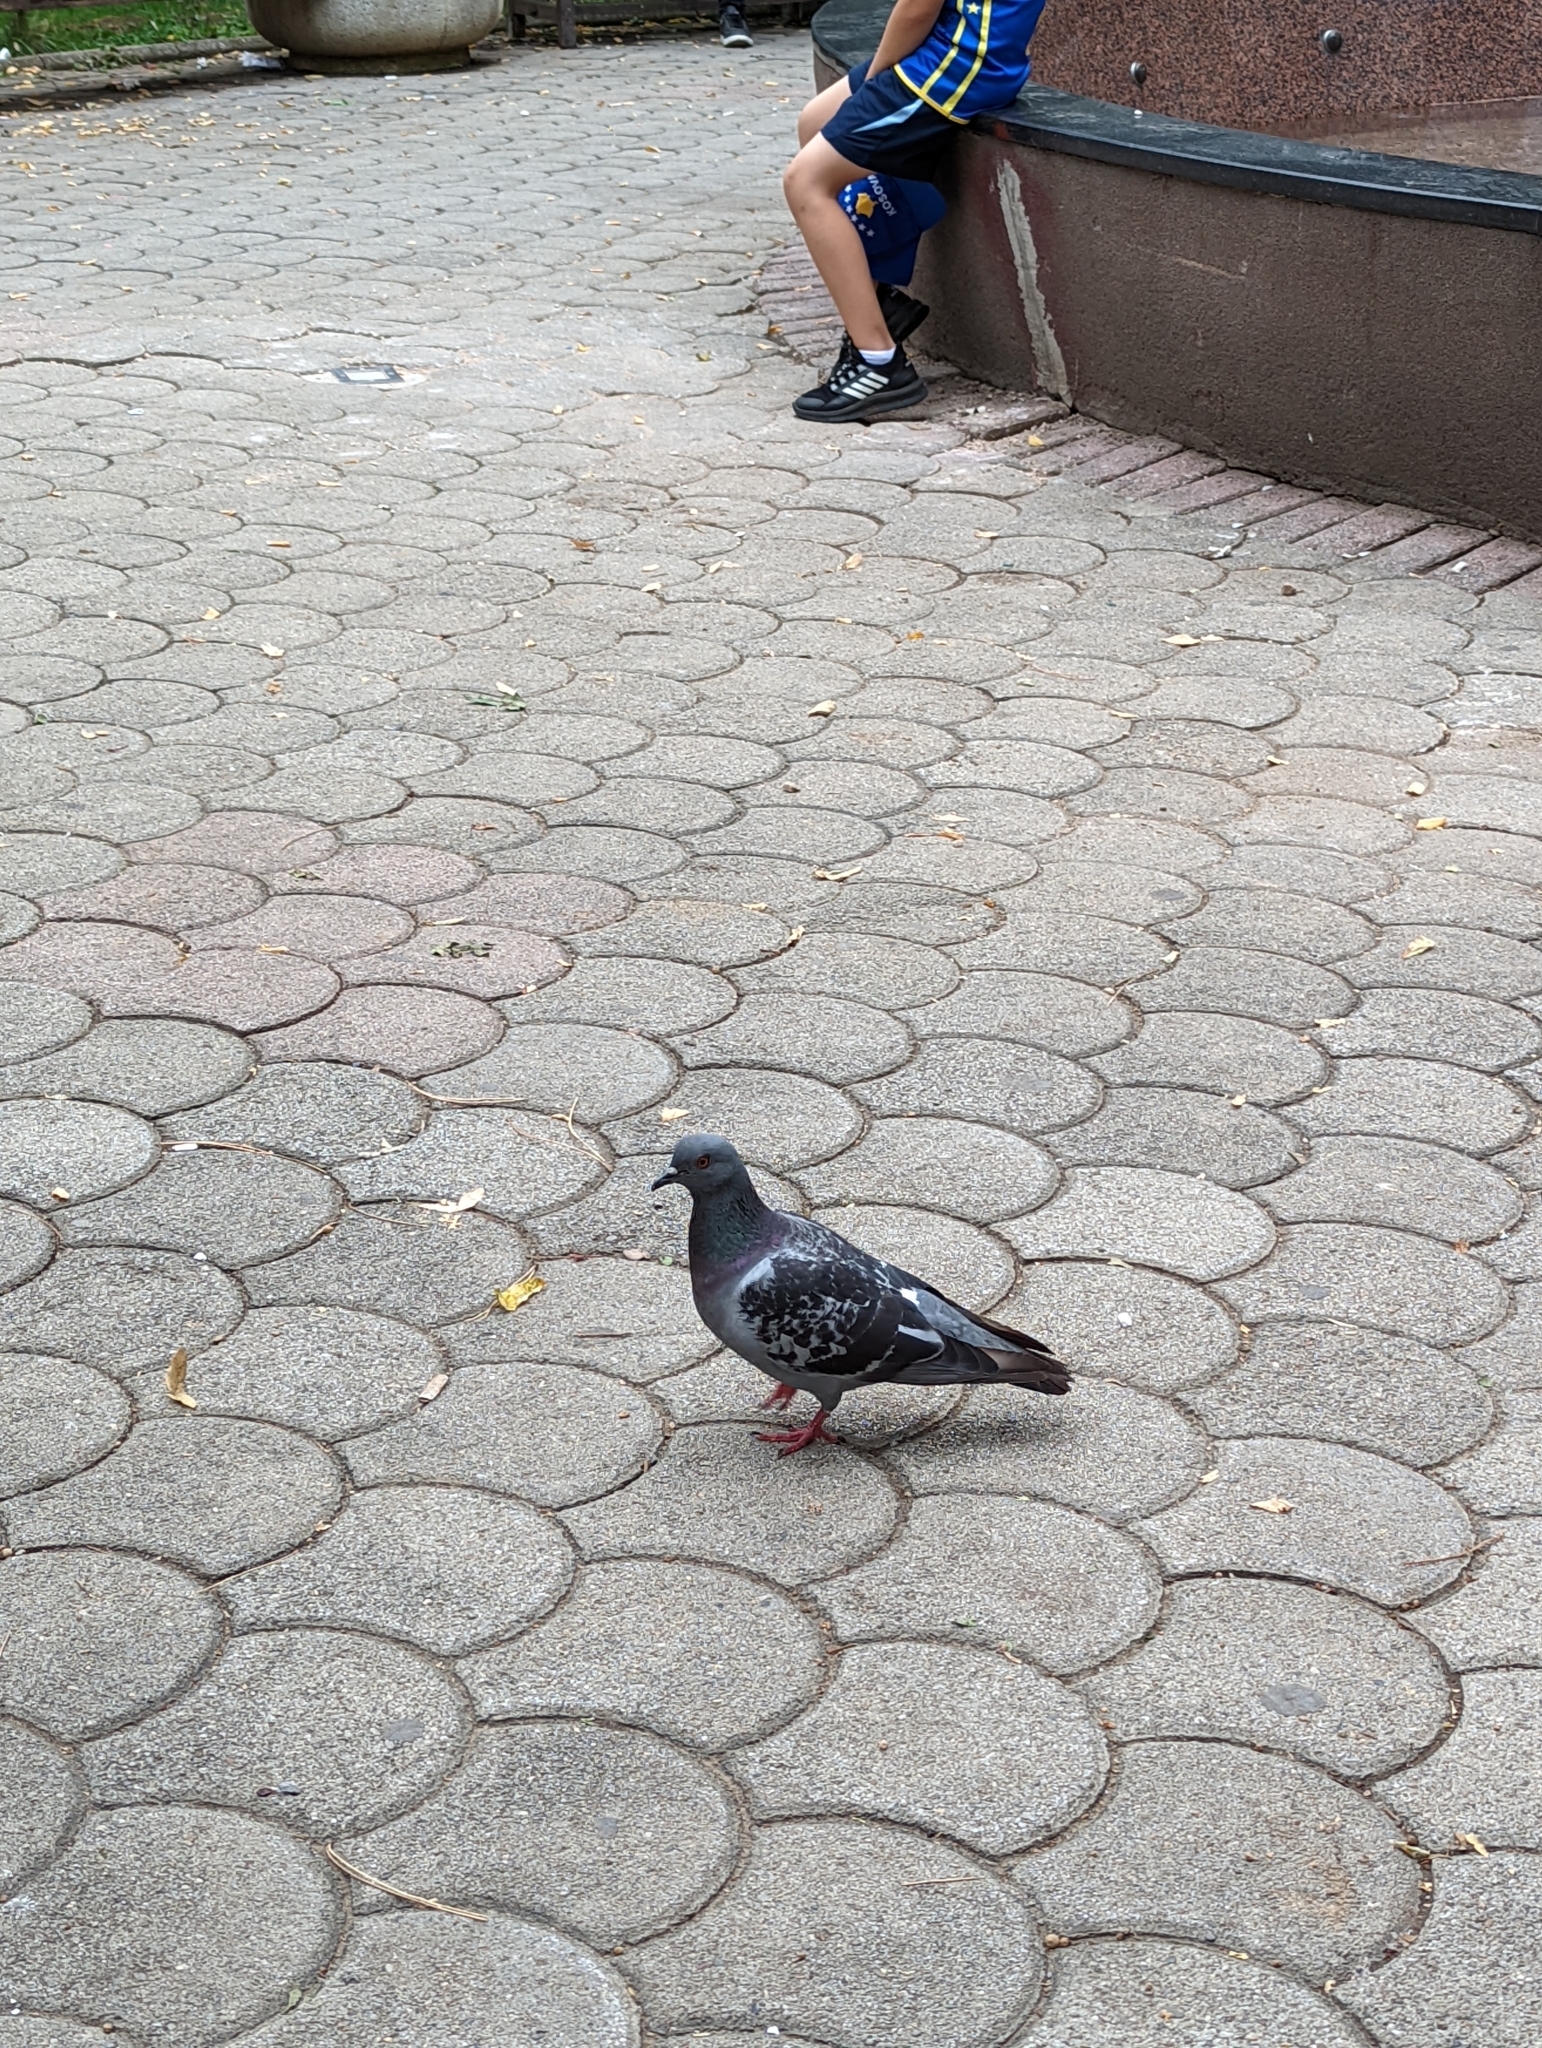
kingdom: Animalia
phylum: Chordata
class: Aves
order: Columbiformes
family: Columbidae
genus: Columba
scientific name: Columba livia
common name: Rock pigeon
